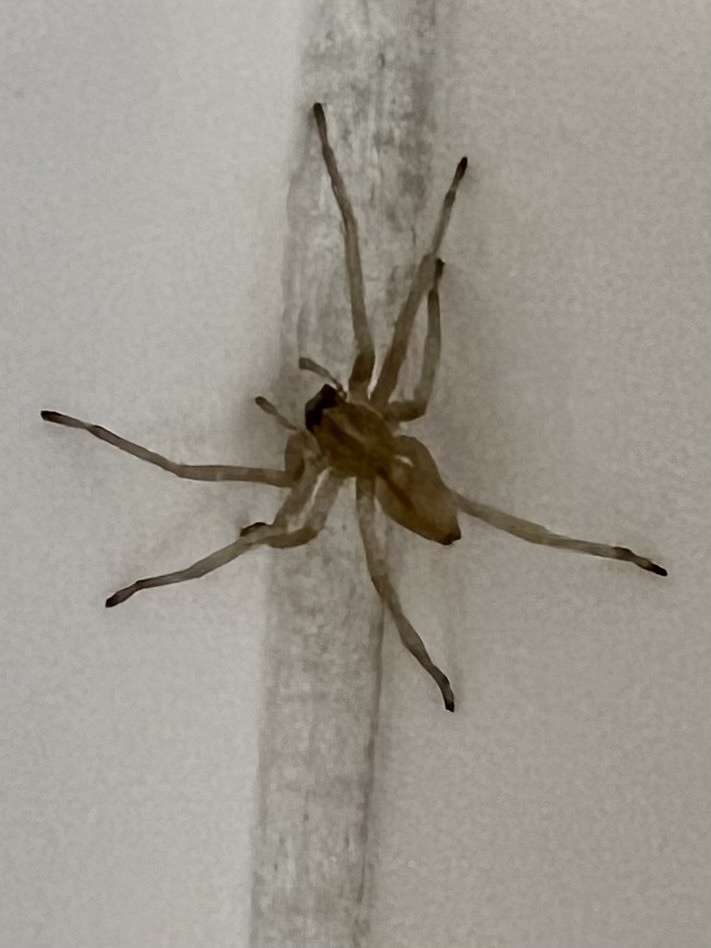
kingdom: Animalia
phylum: Arthropoda
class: Arachnida
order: Araneae
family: Cheiracanthiidae
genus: Cheiracanthium
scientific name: Cheiracanthium mildei
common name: Northern yellow sac spider
